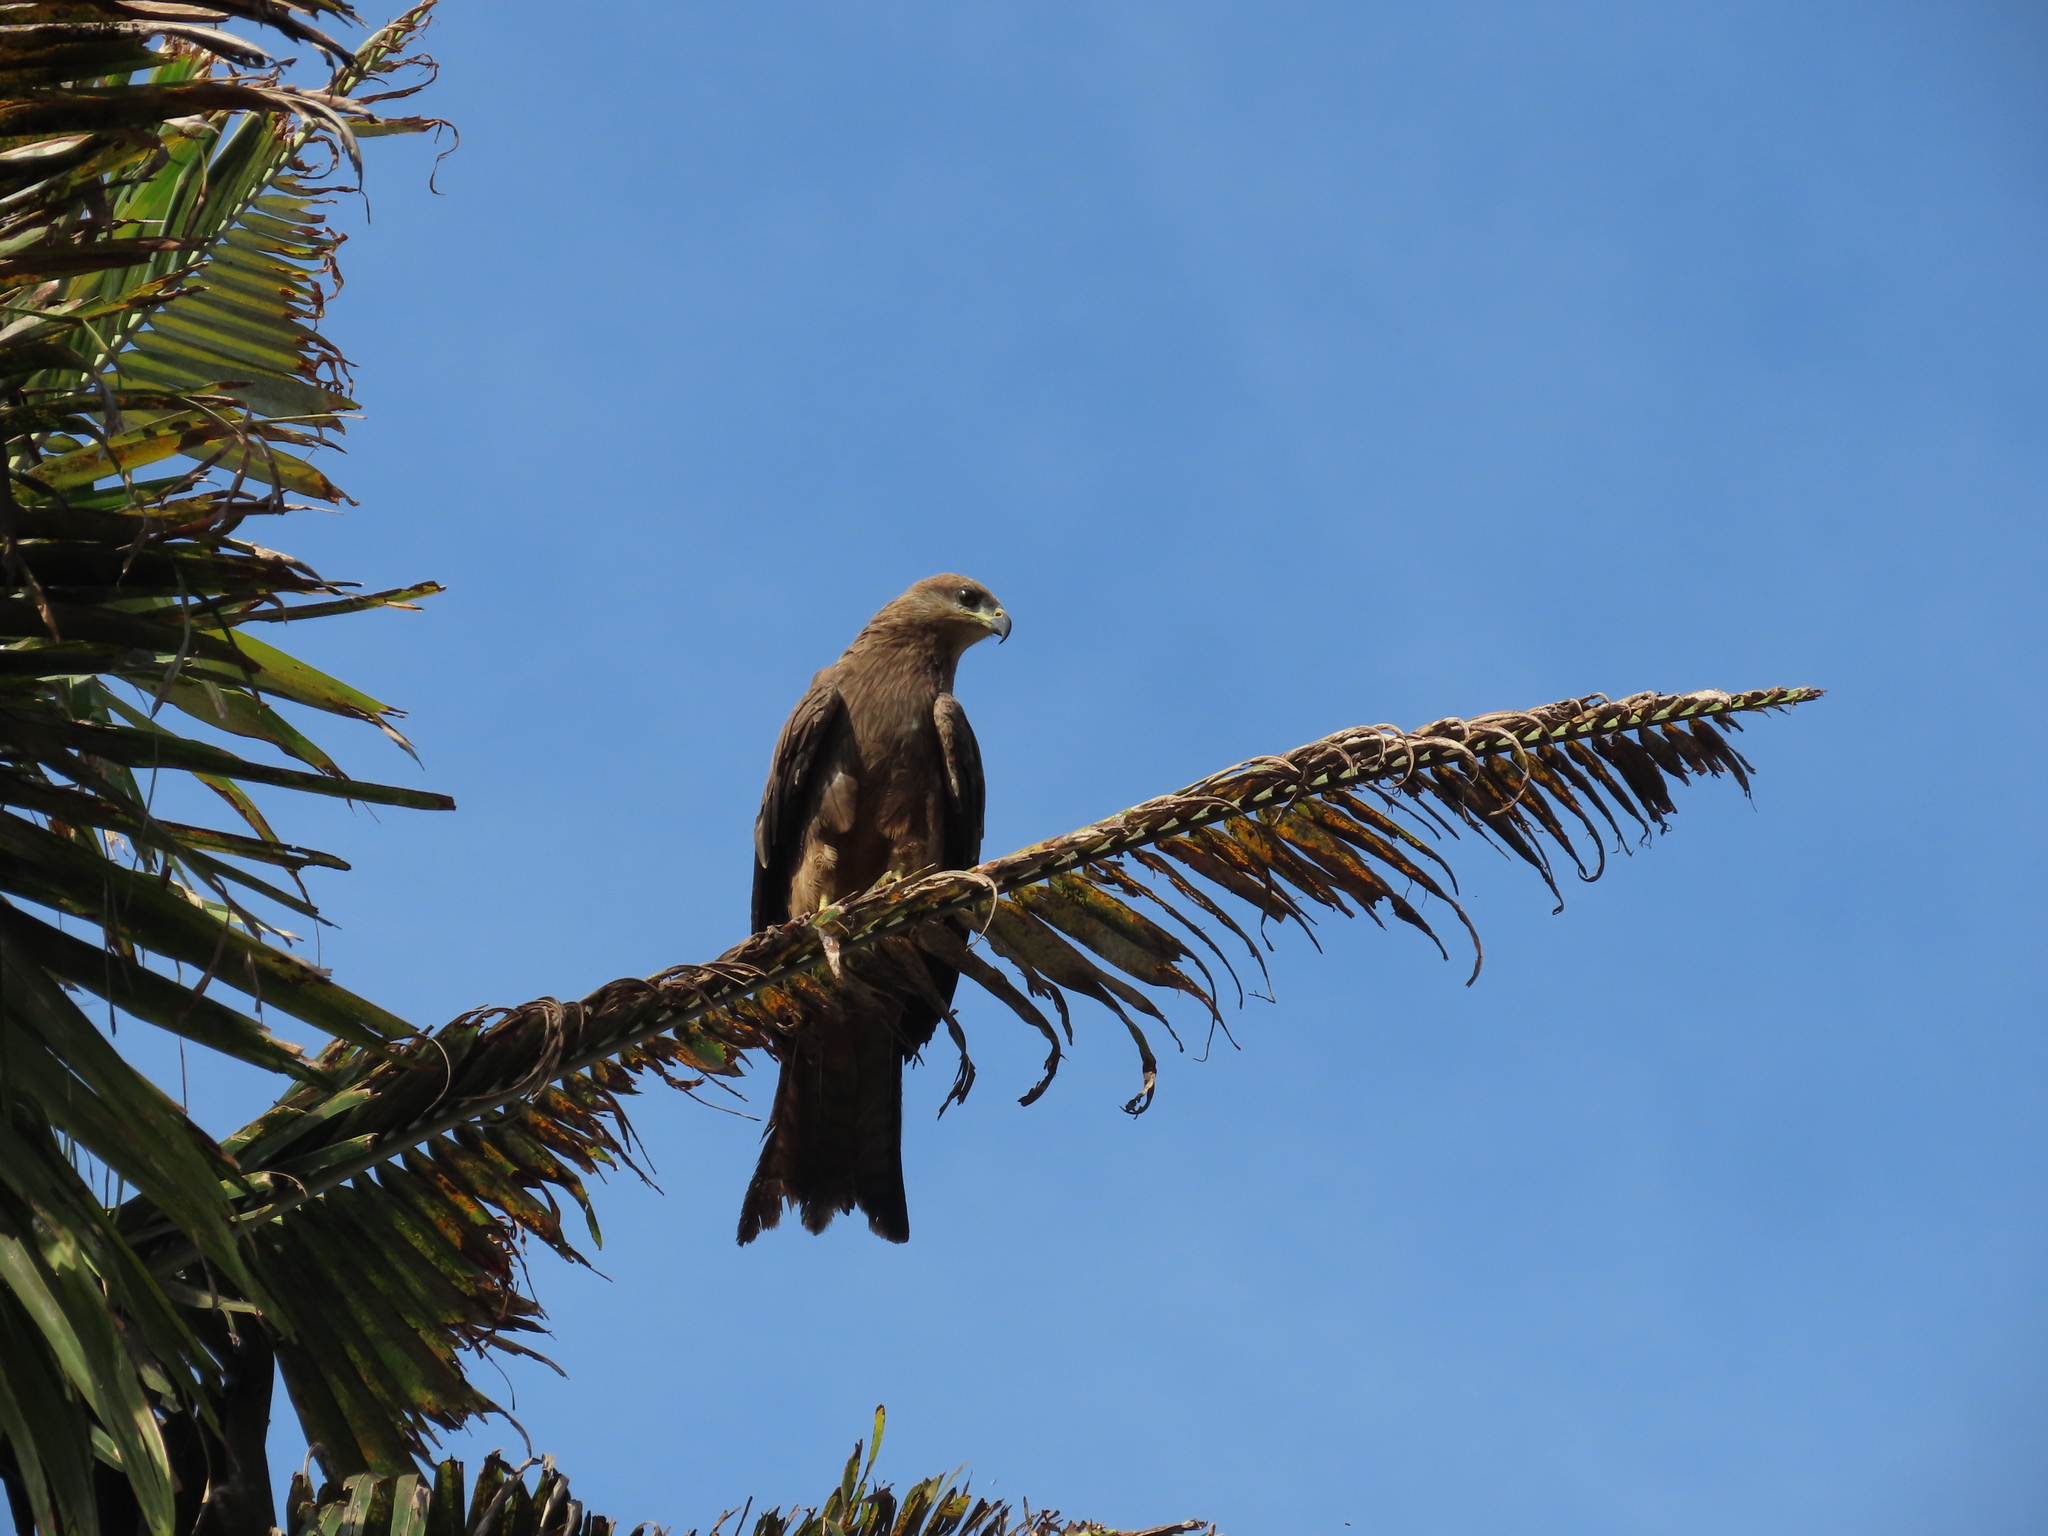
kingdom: Animalia
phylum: Chordata
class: Aves
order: Accipitriformes
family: Accipitridae
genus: Milvus
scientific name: Milvus migrans
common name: Black kite
